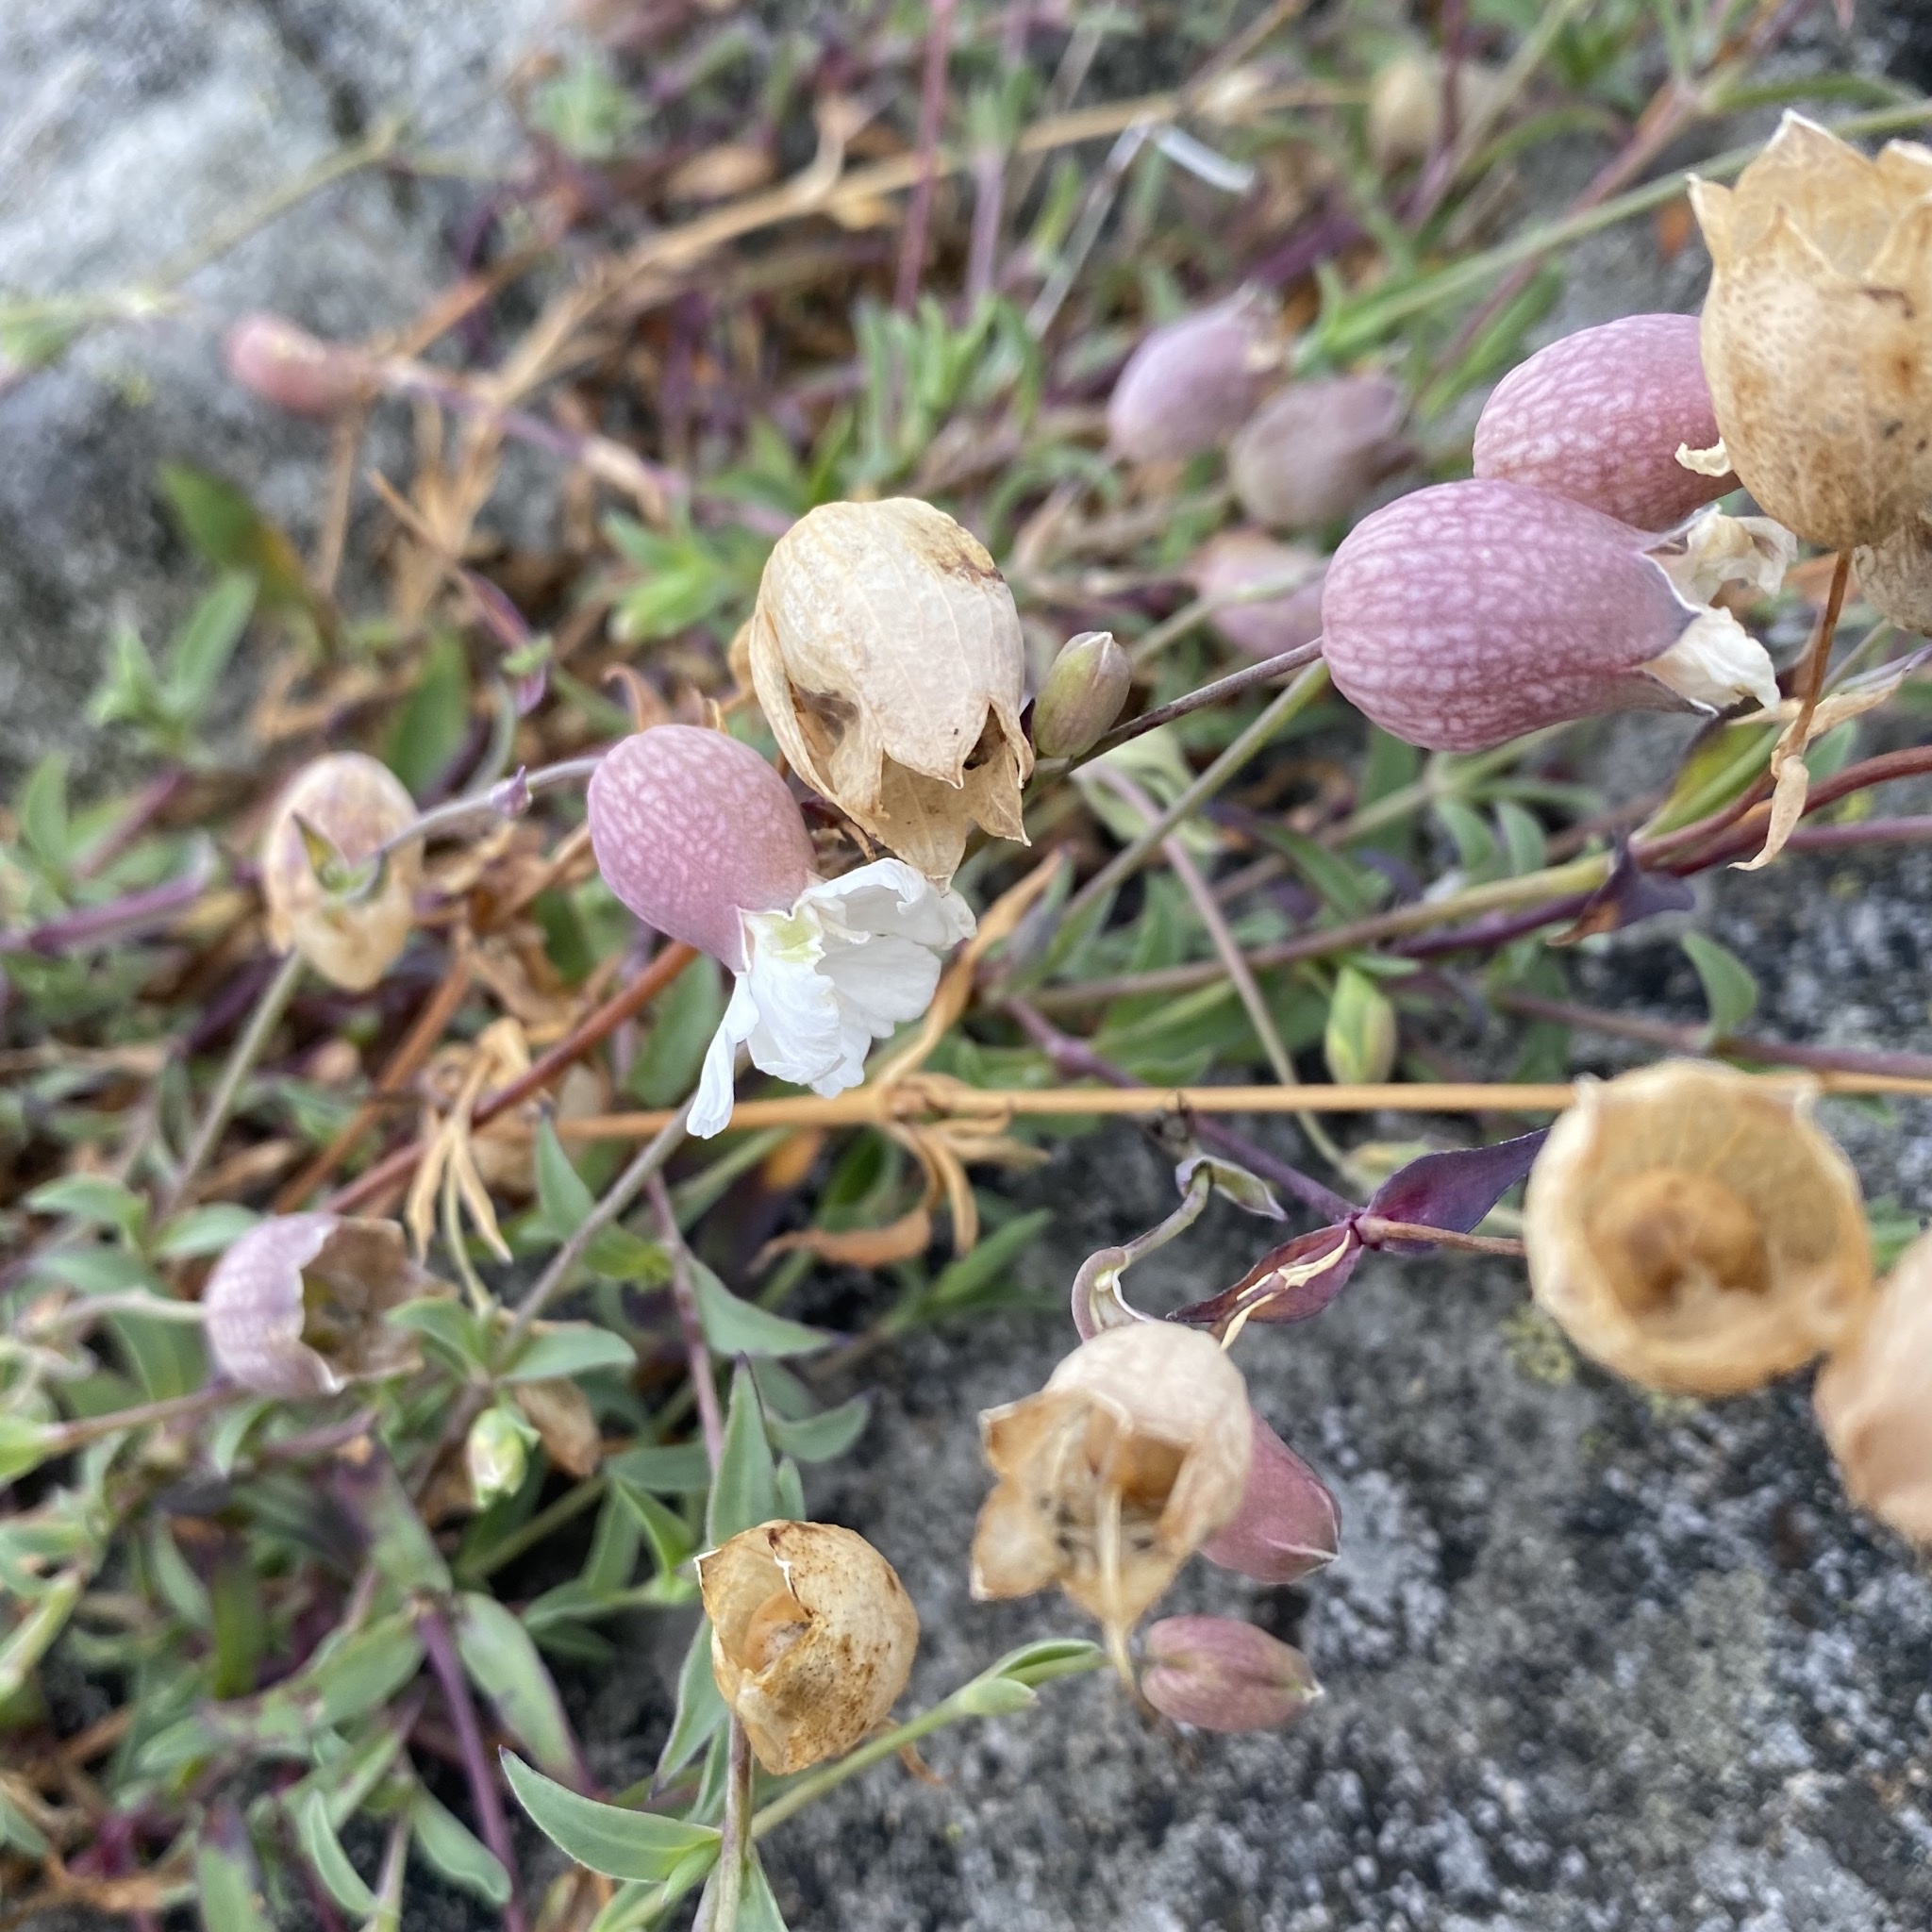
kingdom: Plantae
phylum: Tracheophyta
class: Magnoliopsida
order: Caryophyllales
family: Caryophyllaceae
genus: Silene
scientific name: Silene uniflora
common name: Sea campion
